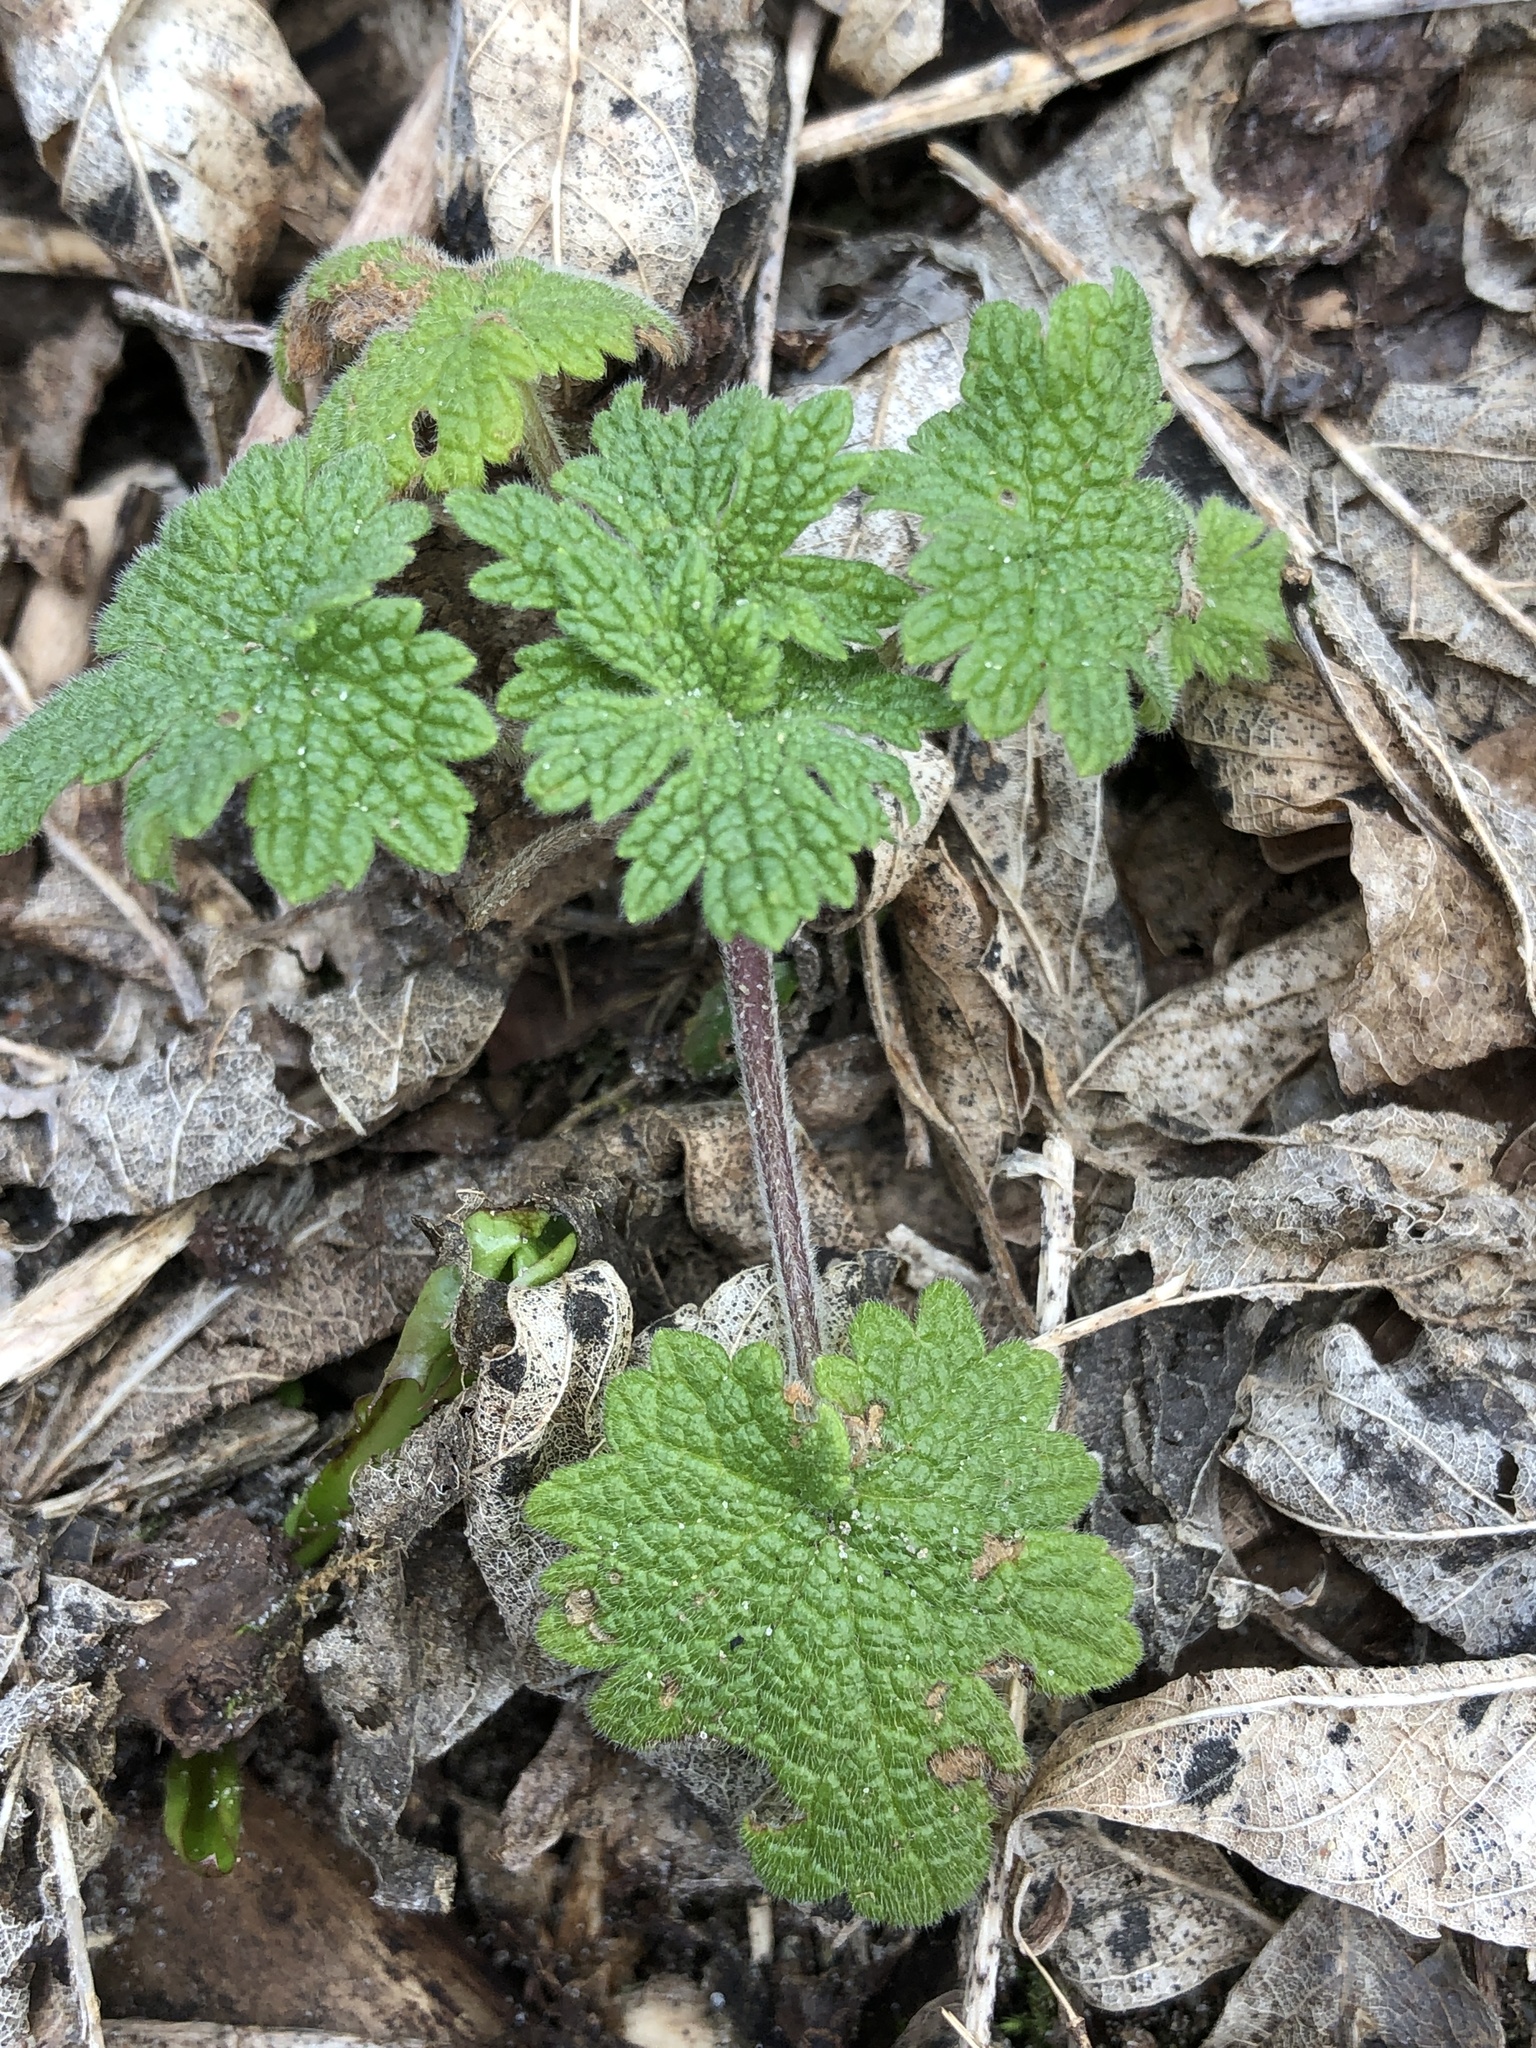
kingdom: Plantae
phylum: Tracheophyta
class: Magnoliopsida
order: Lamiales
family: Lamiaceae
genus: Leonurus
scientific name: Leonurus cardiaca
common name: Motherwort
